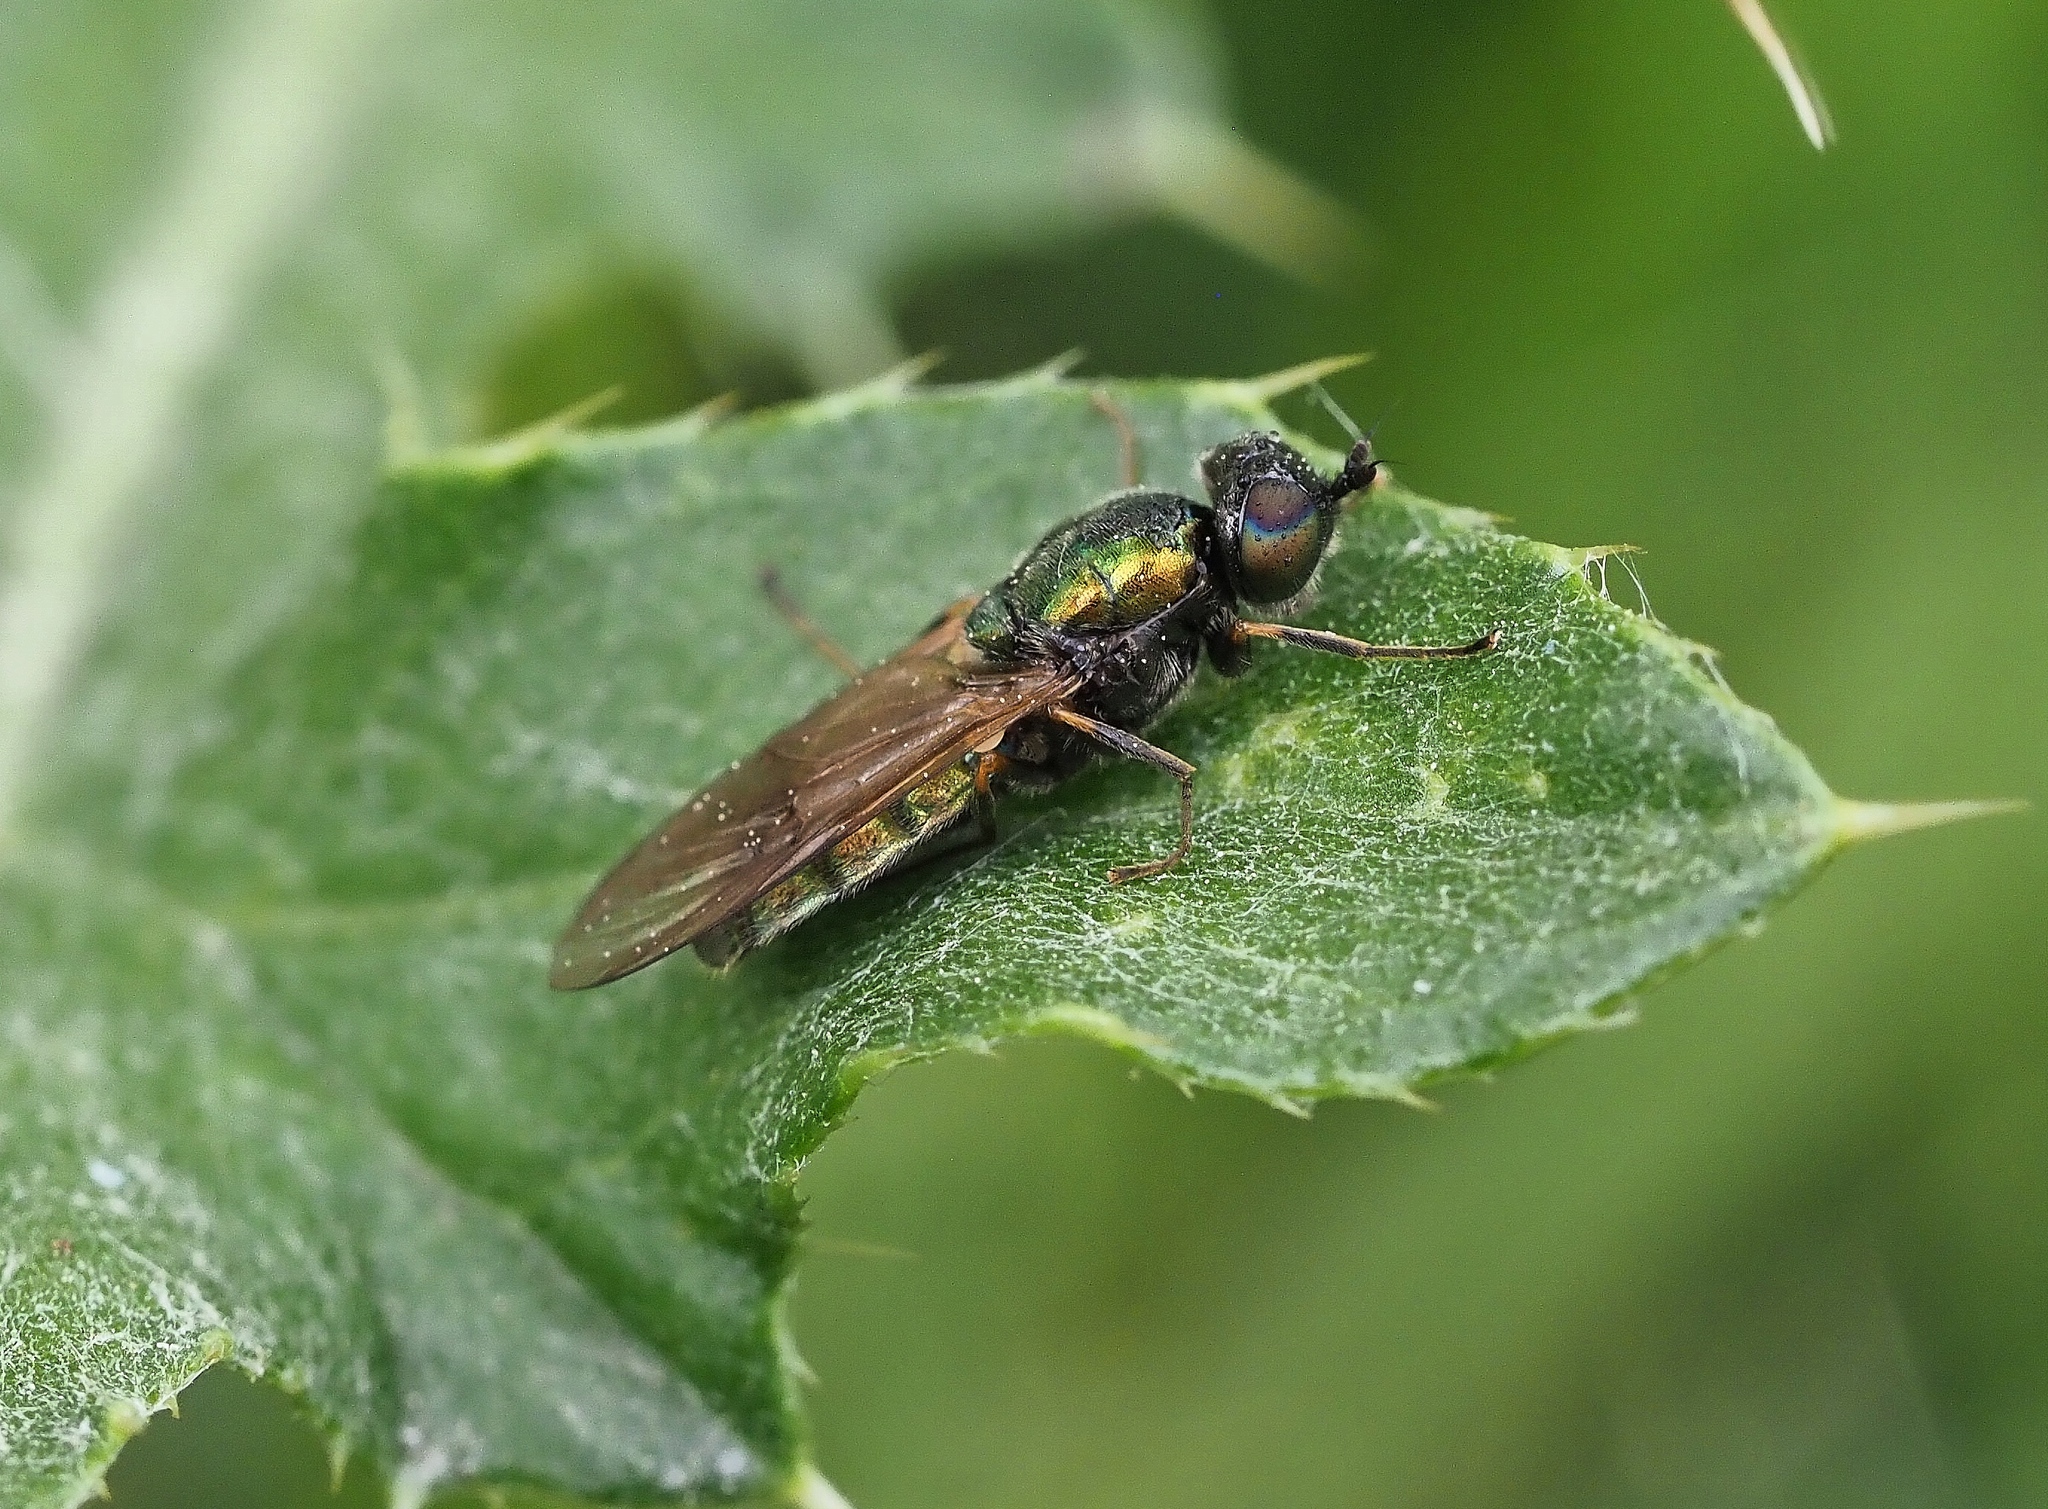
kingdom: Animalia
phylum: Arthropoda
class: Insecta
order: Diptera
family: Stratiomyidae
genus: Chloromyia
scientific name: Chloromyia formosa
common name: Soldier fly
